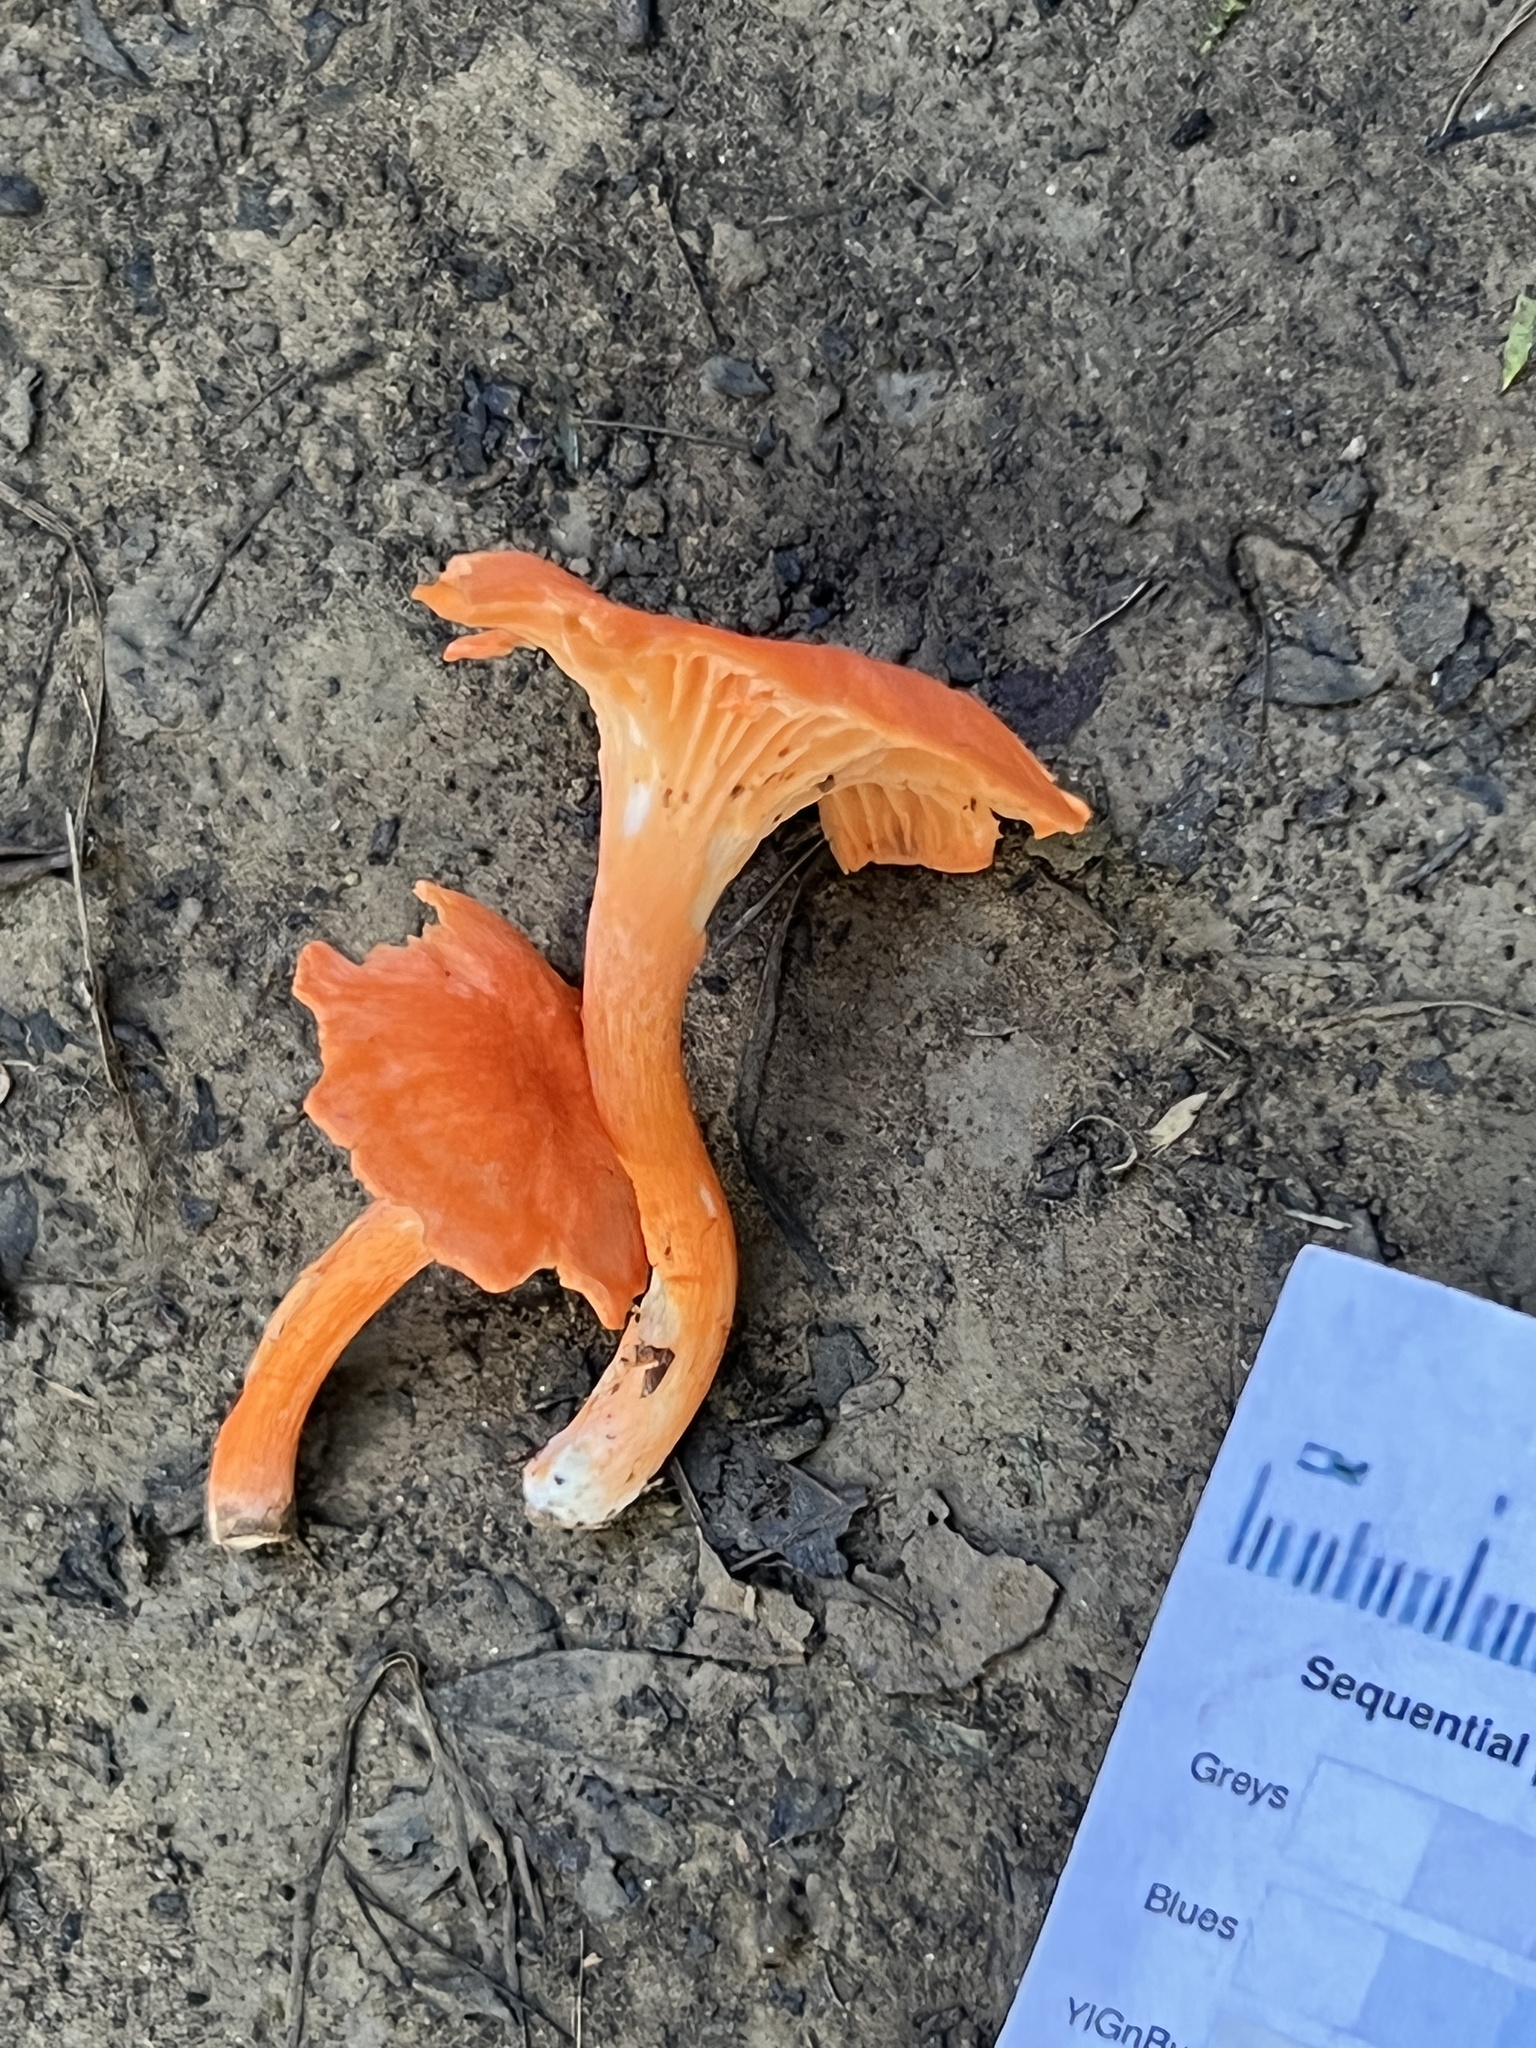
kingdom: Fungi
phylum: Basidiomycota
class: Agaricomycetes
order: Cantharellales
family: Hydnaceae
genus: Cantharellus
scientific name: Cantharellus corallinus
